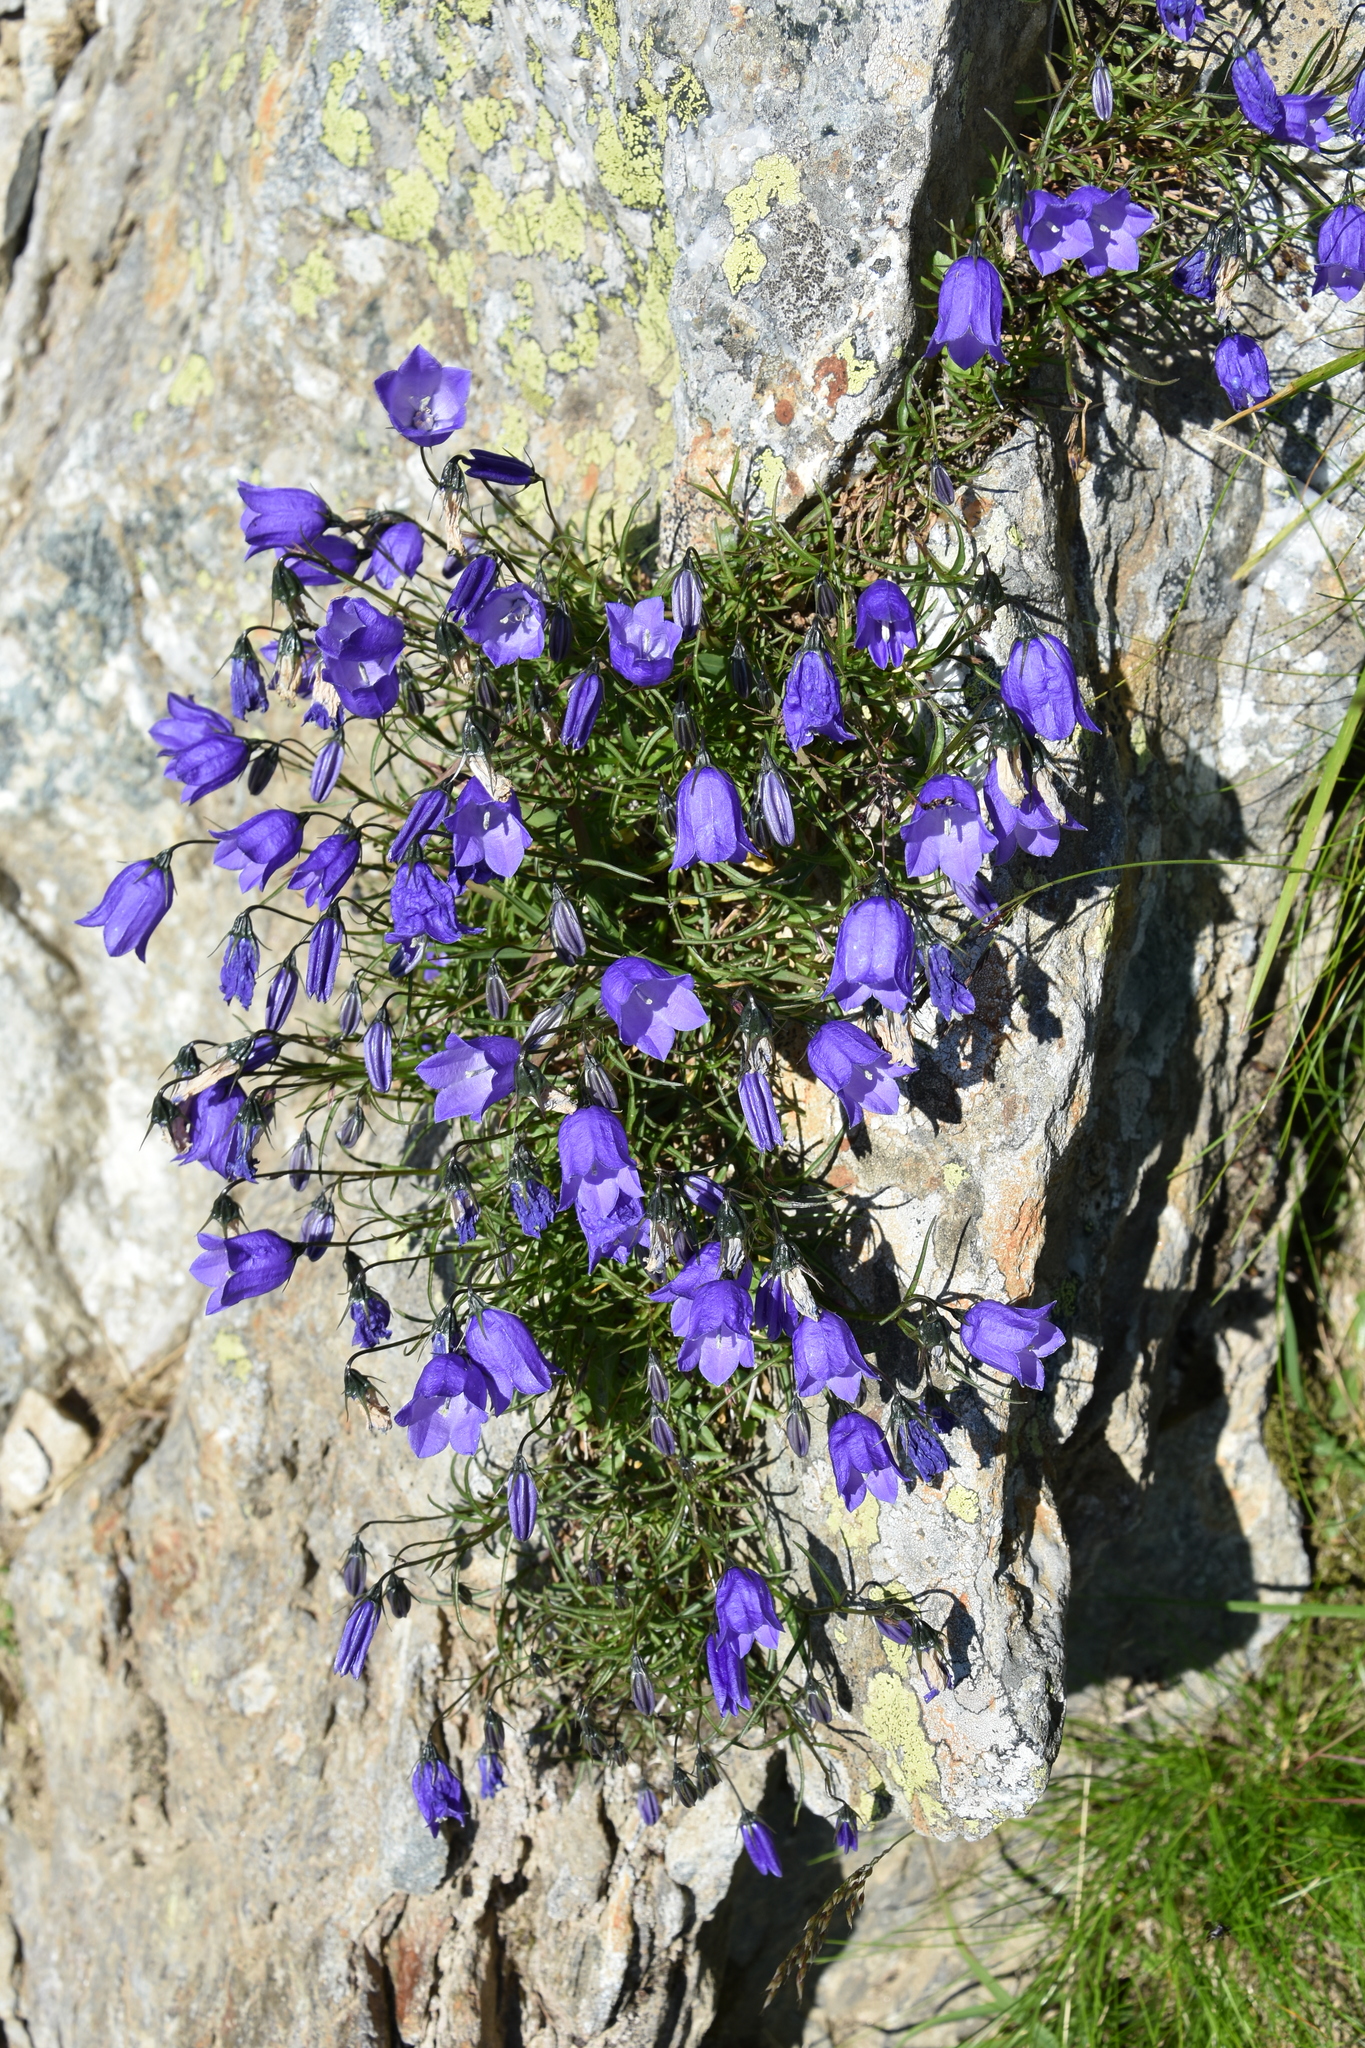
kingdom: Plantae
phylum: Tracheophyta
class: Magnoliopsida
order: Asterales
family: Campanulaceae
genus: Campanula
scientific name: Campanula cochleariifolia
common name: Fairies'-thimbles
